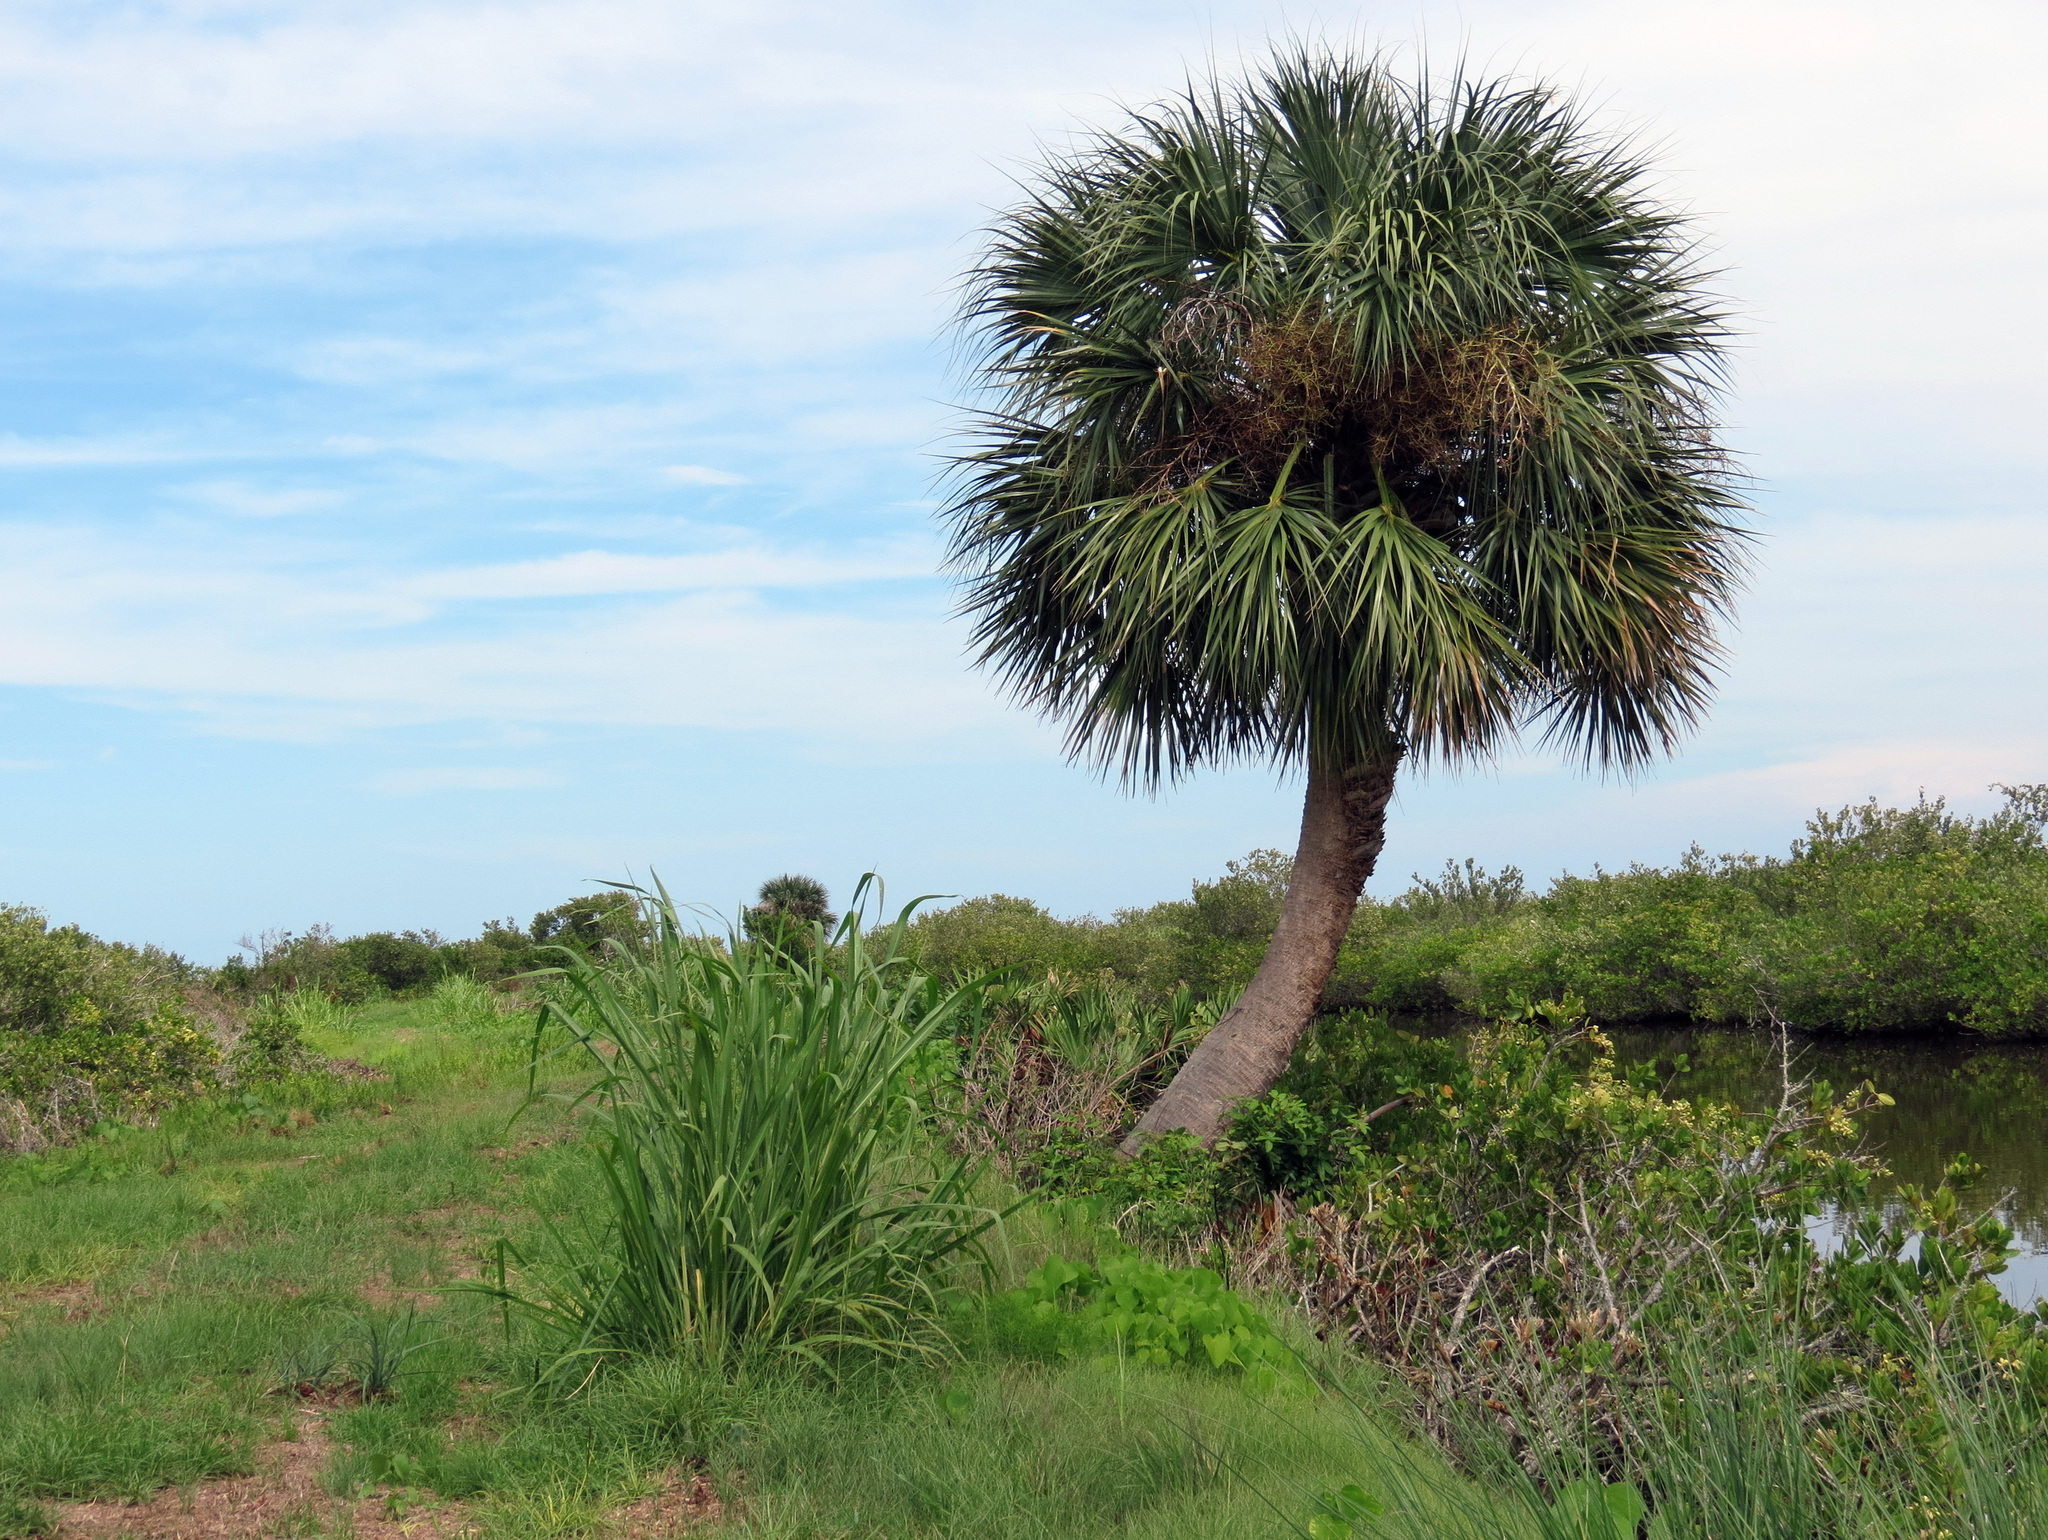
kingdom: Plantae
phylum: Tracheophyta
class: Liliopsida
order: Arecales
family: Arecaceae
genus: Sabal
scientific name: Sabal palmetto
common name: Blue palmetto
